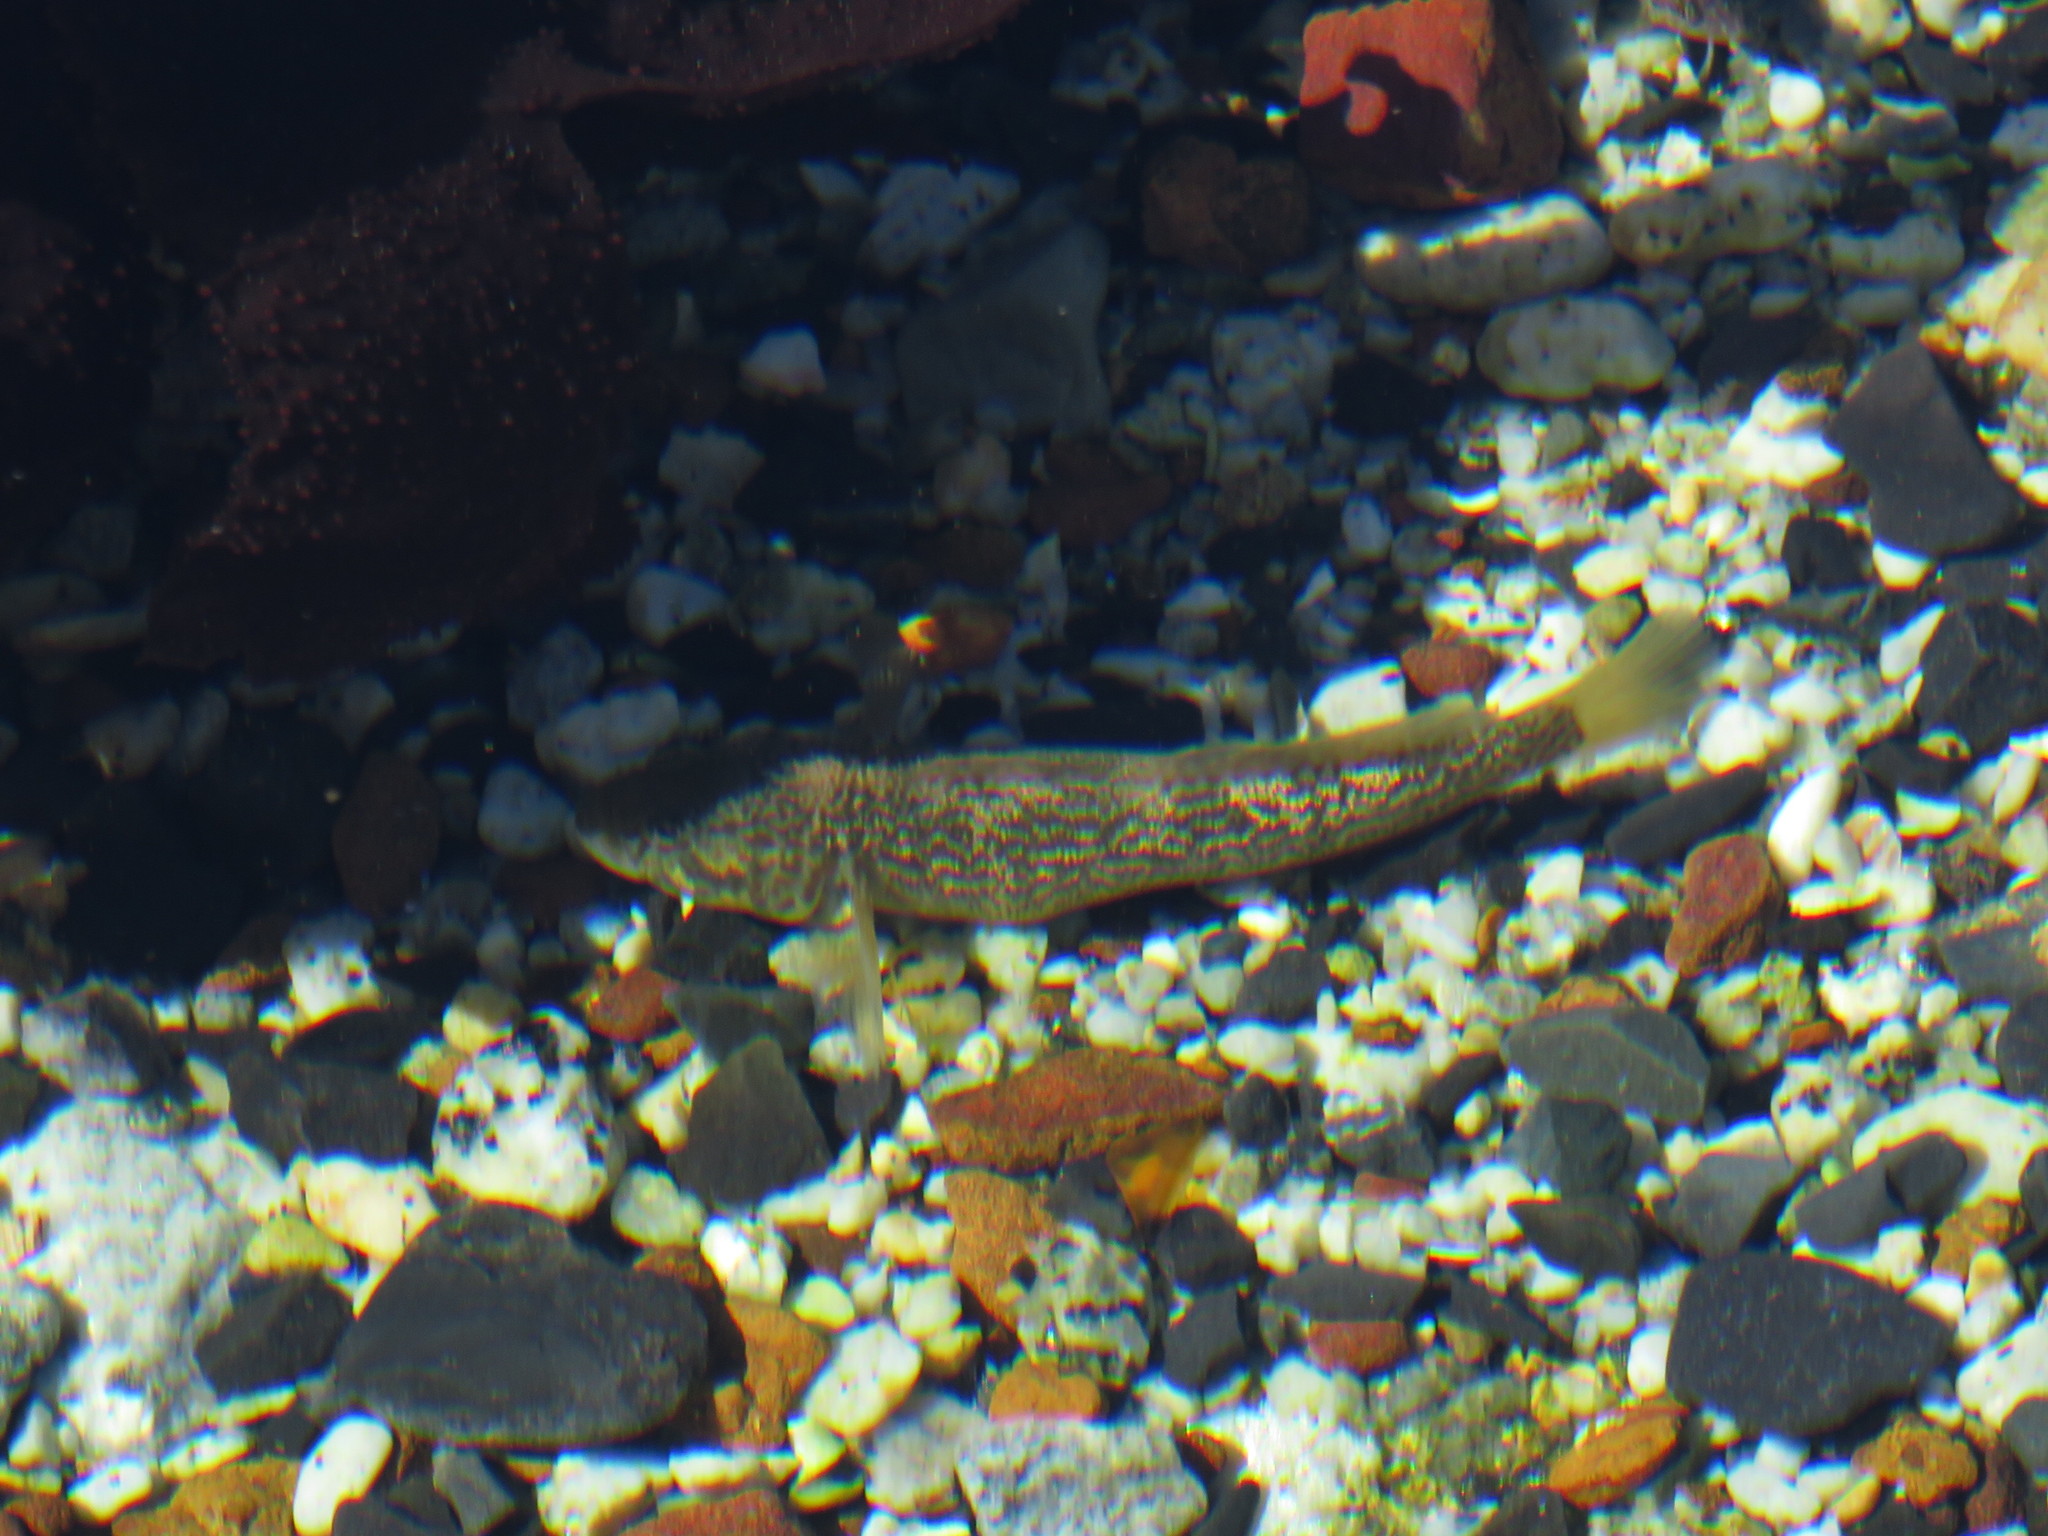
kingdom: Animalia
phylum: Chordata
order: Perciformes
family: Gobiidae
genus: Caffrogobius
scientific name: Caffrogobius caffer
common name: Banded goby
